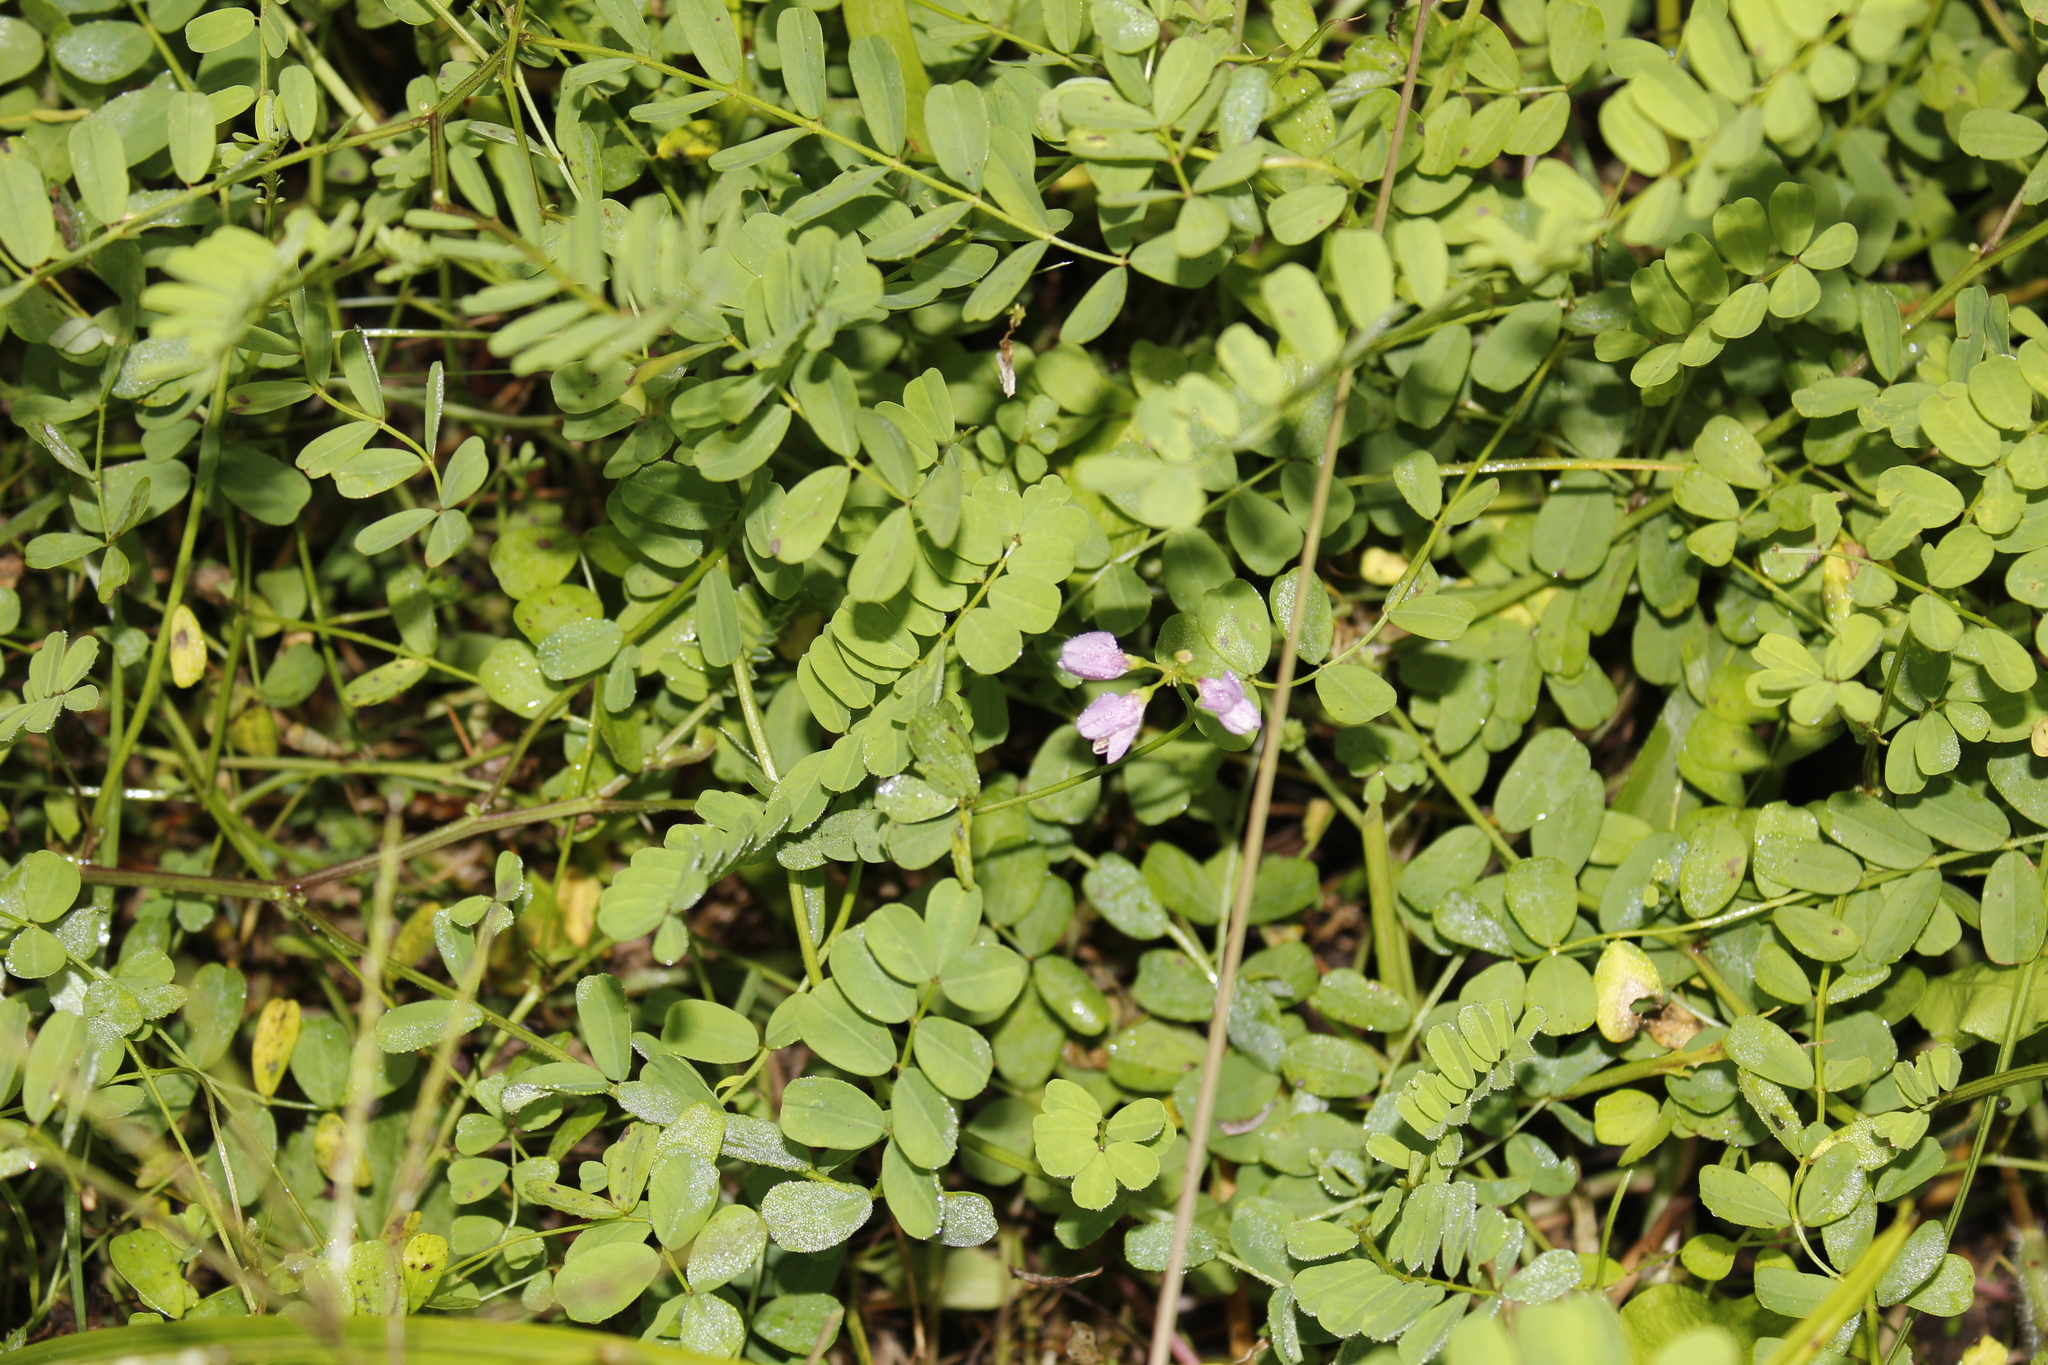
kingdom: Plantae
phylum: Tracheophyta
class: Magnoliopsida
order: Fabales
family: Fabaceae
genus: Coronilla
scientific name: Coronilla varia
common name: Crownvetch
